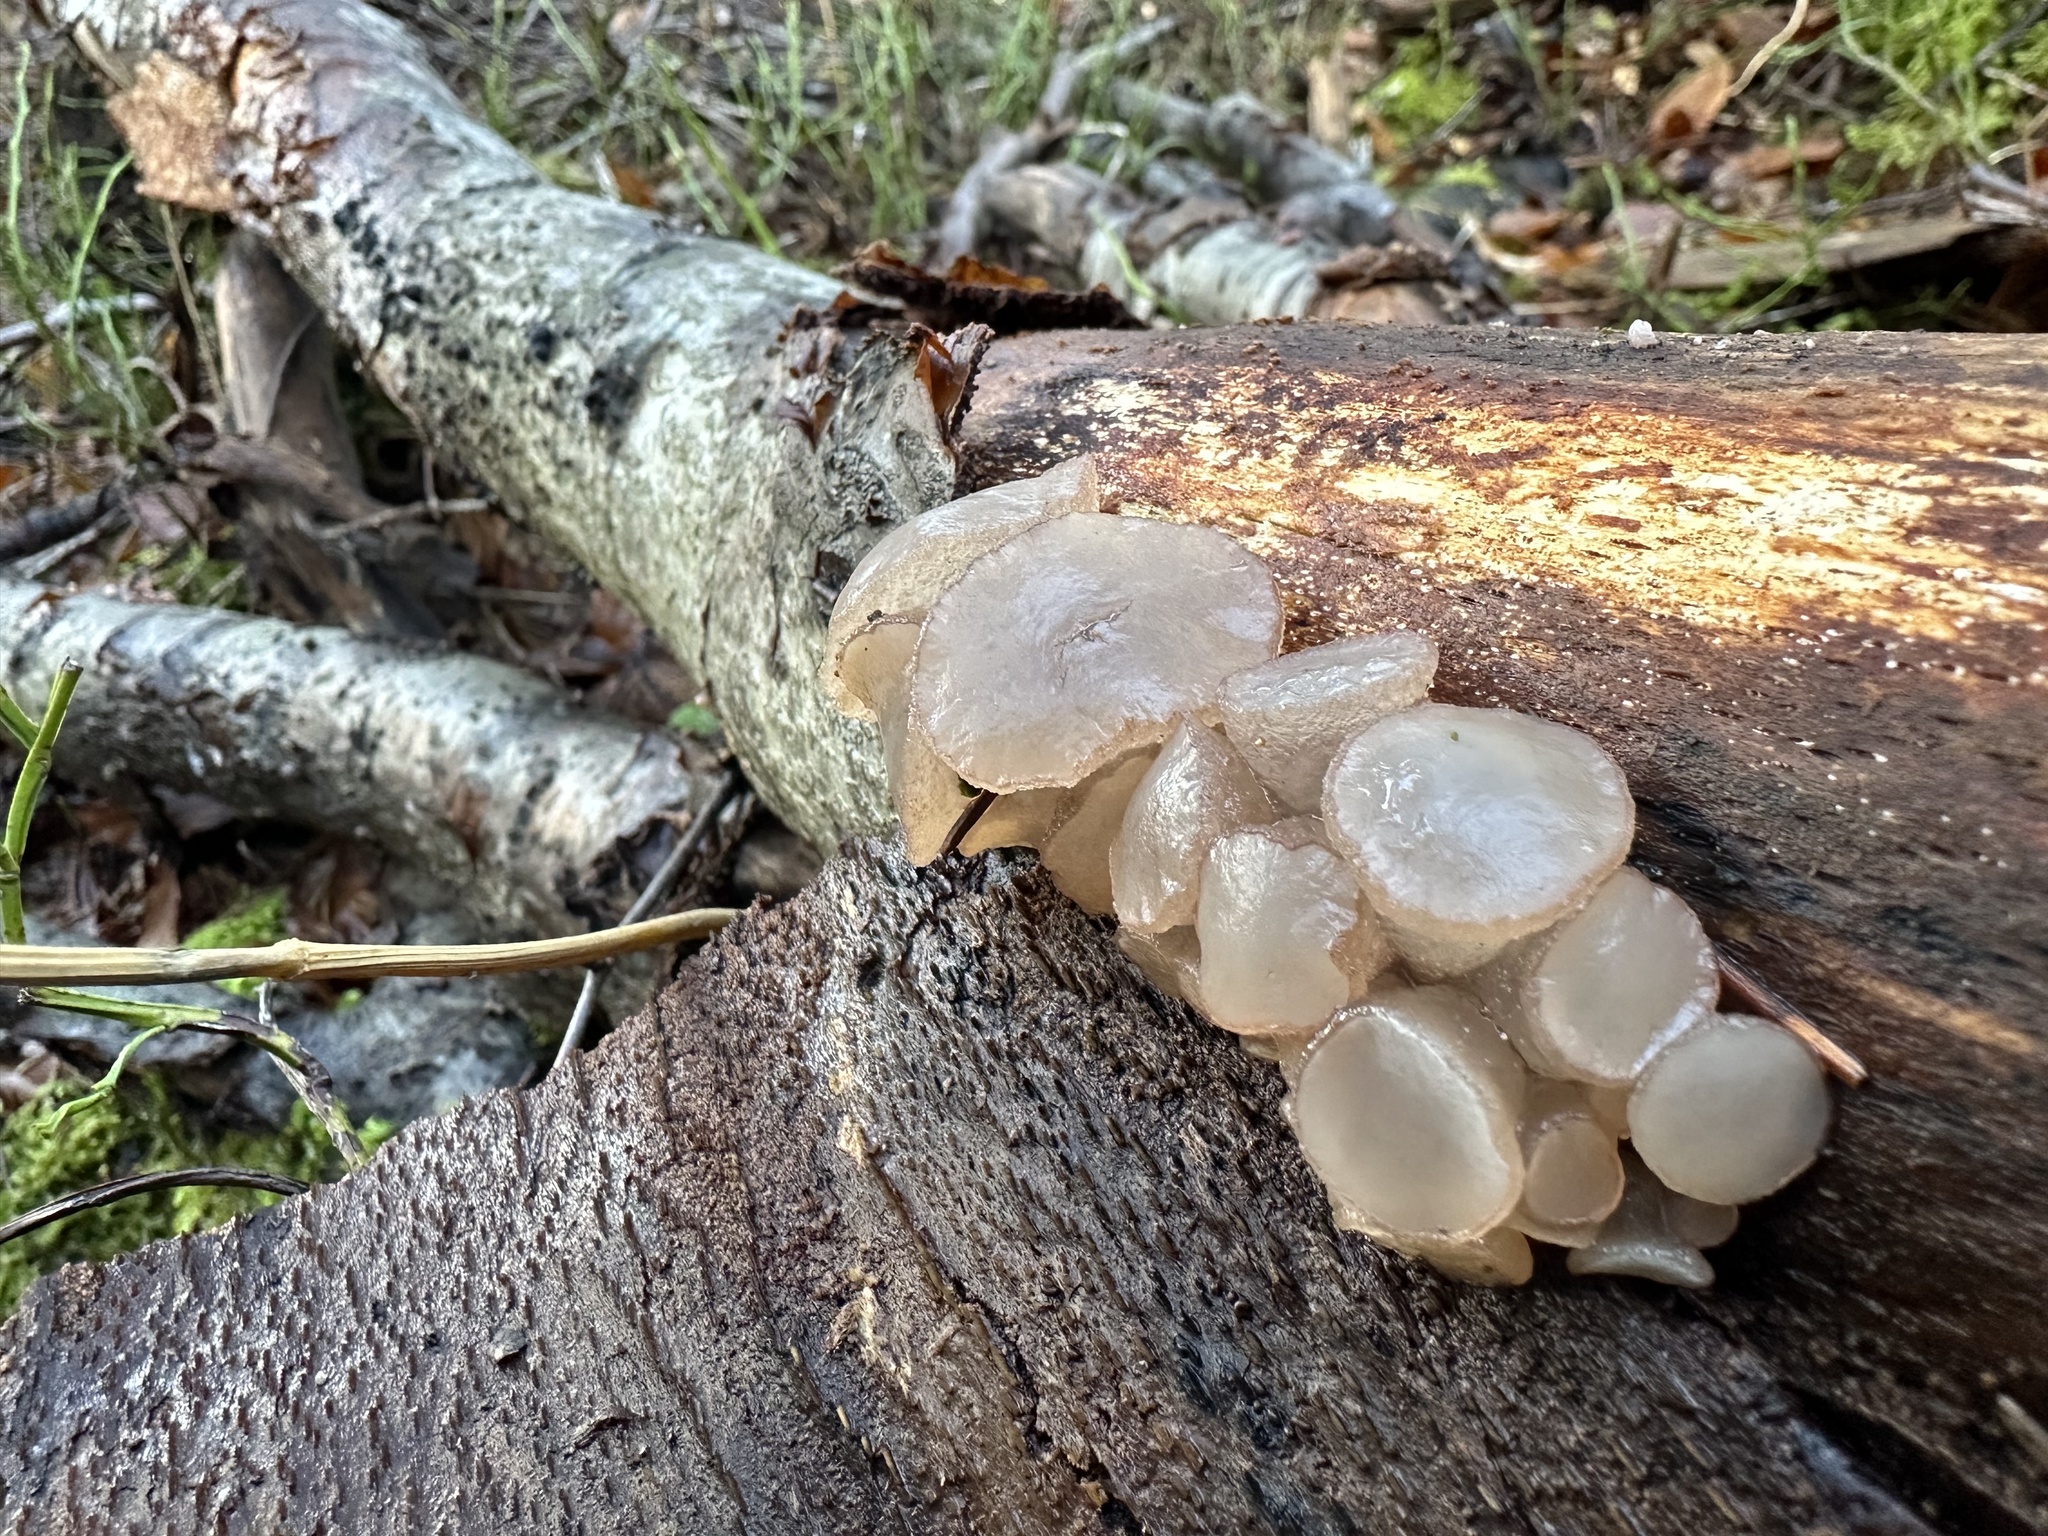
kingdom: Fungi
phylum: Ascomycota
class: Leotiomycetes
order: Helotiales
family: Gelatinodiscaceae
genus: Neobulgaria
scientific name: Neobulgaria pura
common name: Beech jelly-disc
